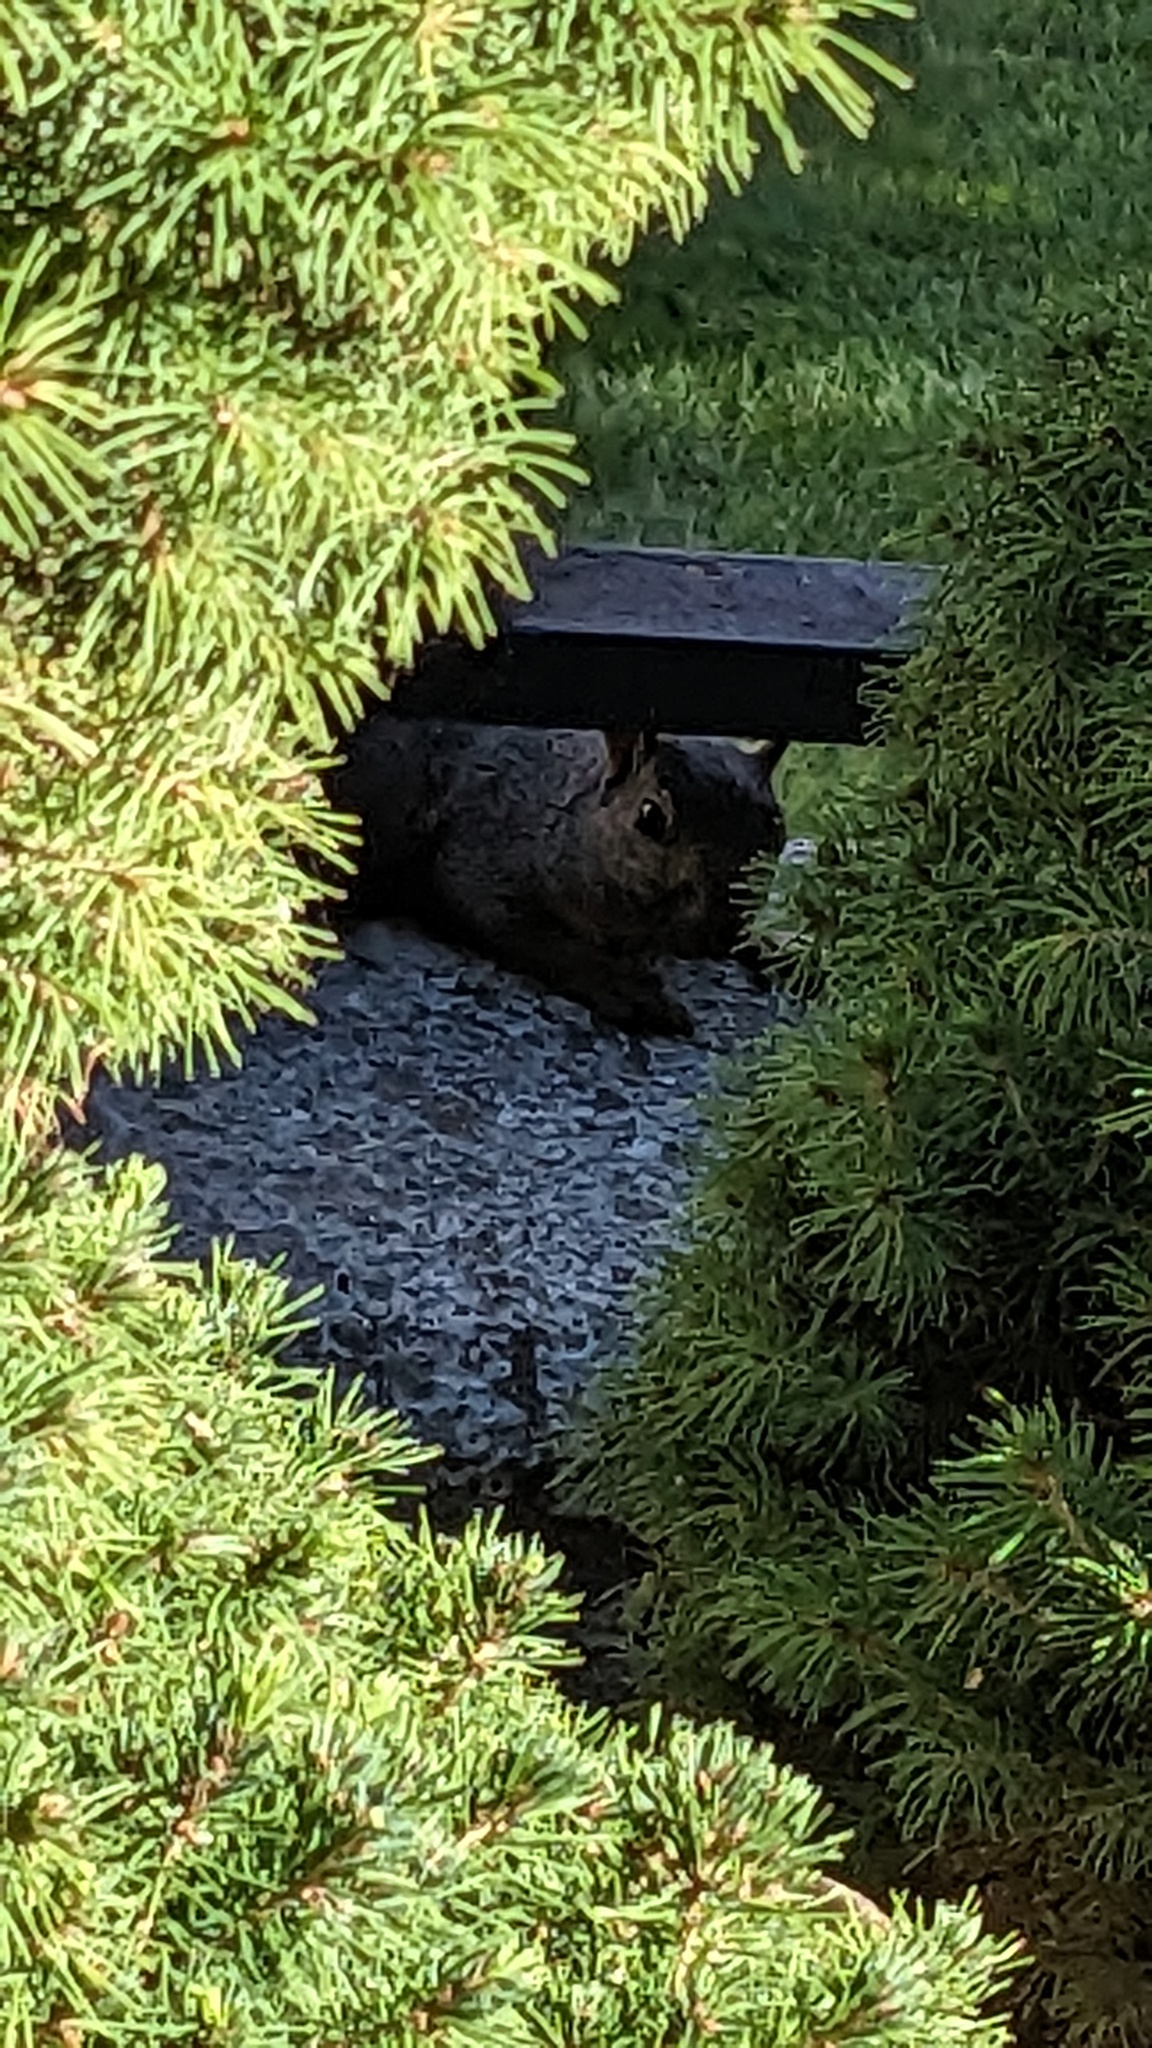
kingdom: Animalia
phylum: Chordata
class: Mammalia
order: Rodentia
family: Sciuridae
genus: Sciurus
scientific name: Sciurus carolinensis
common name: Eastern gray squirrel
